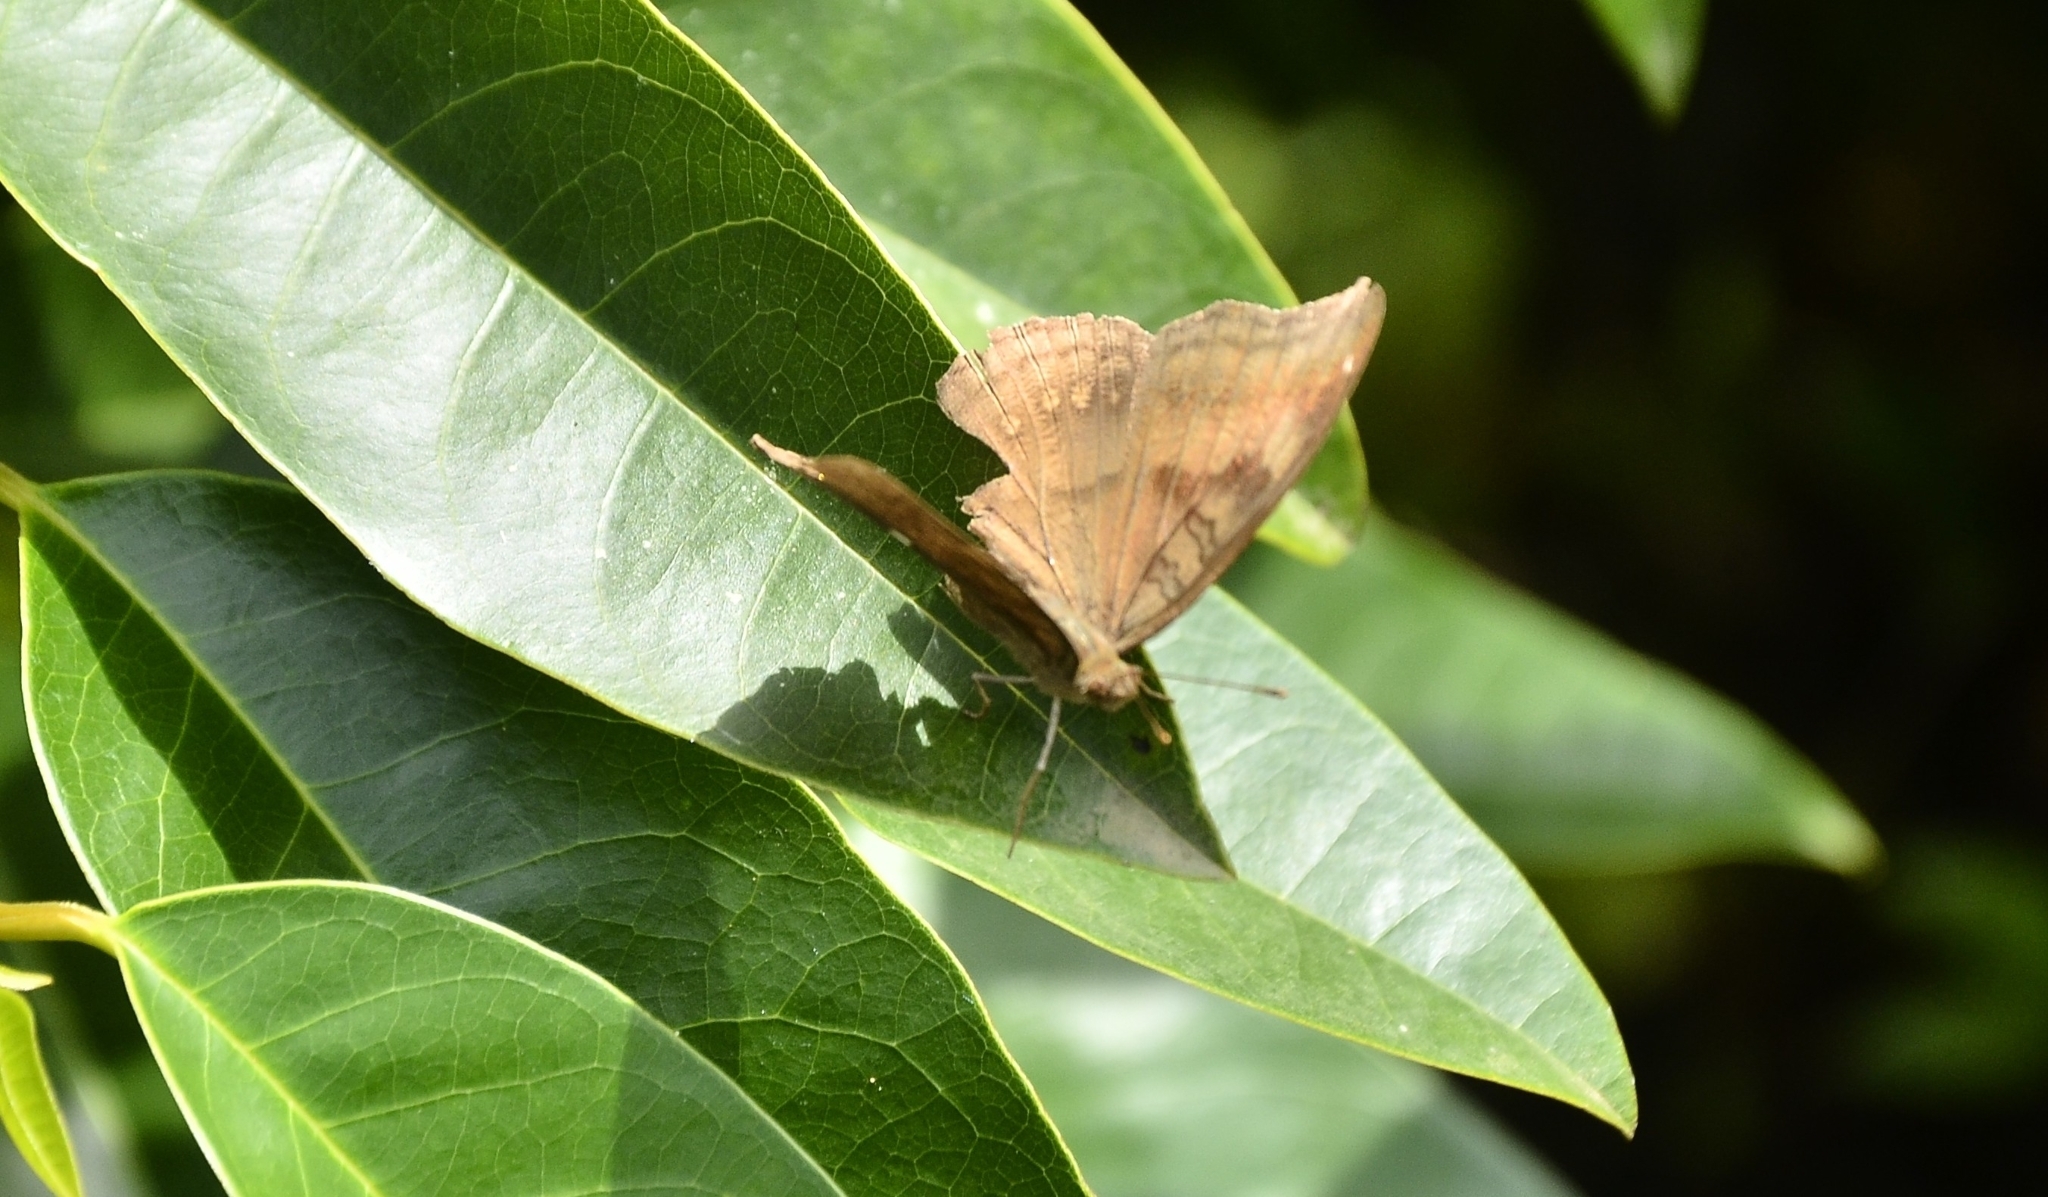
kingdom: Animalia
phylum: Arthropoda
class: Insecta
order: Lepidoptera
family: Nymphalidae
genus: Junonia
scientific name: Junonia iphita
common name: Chocolate pansy
